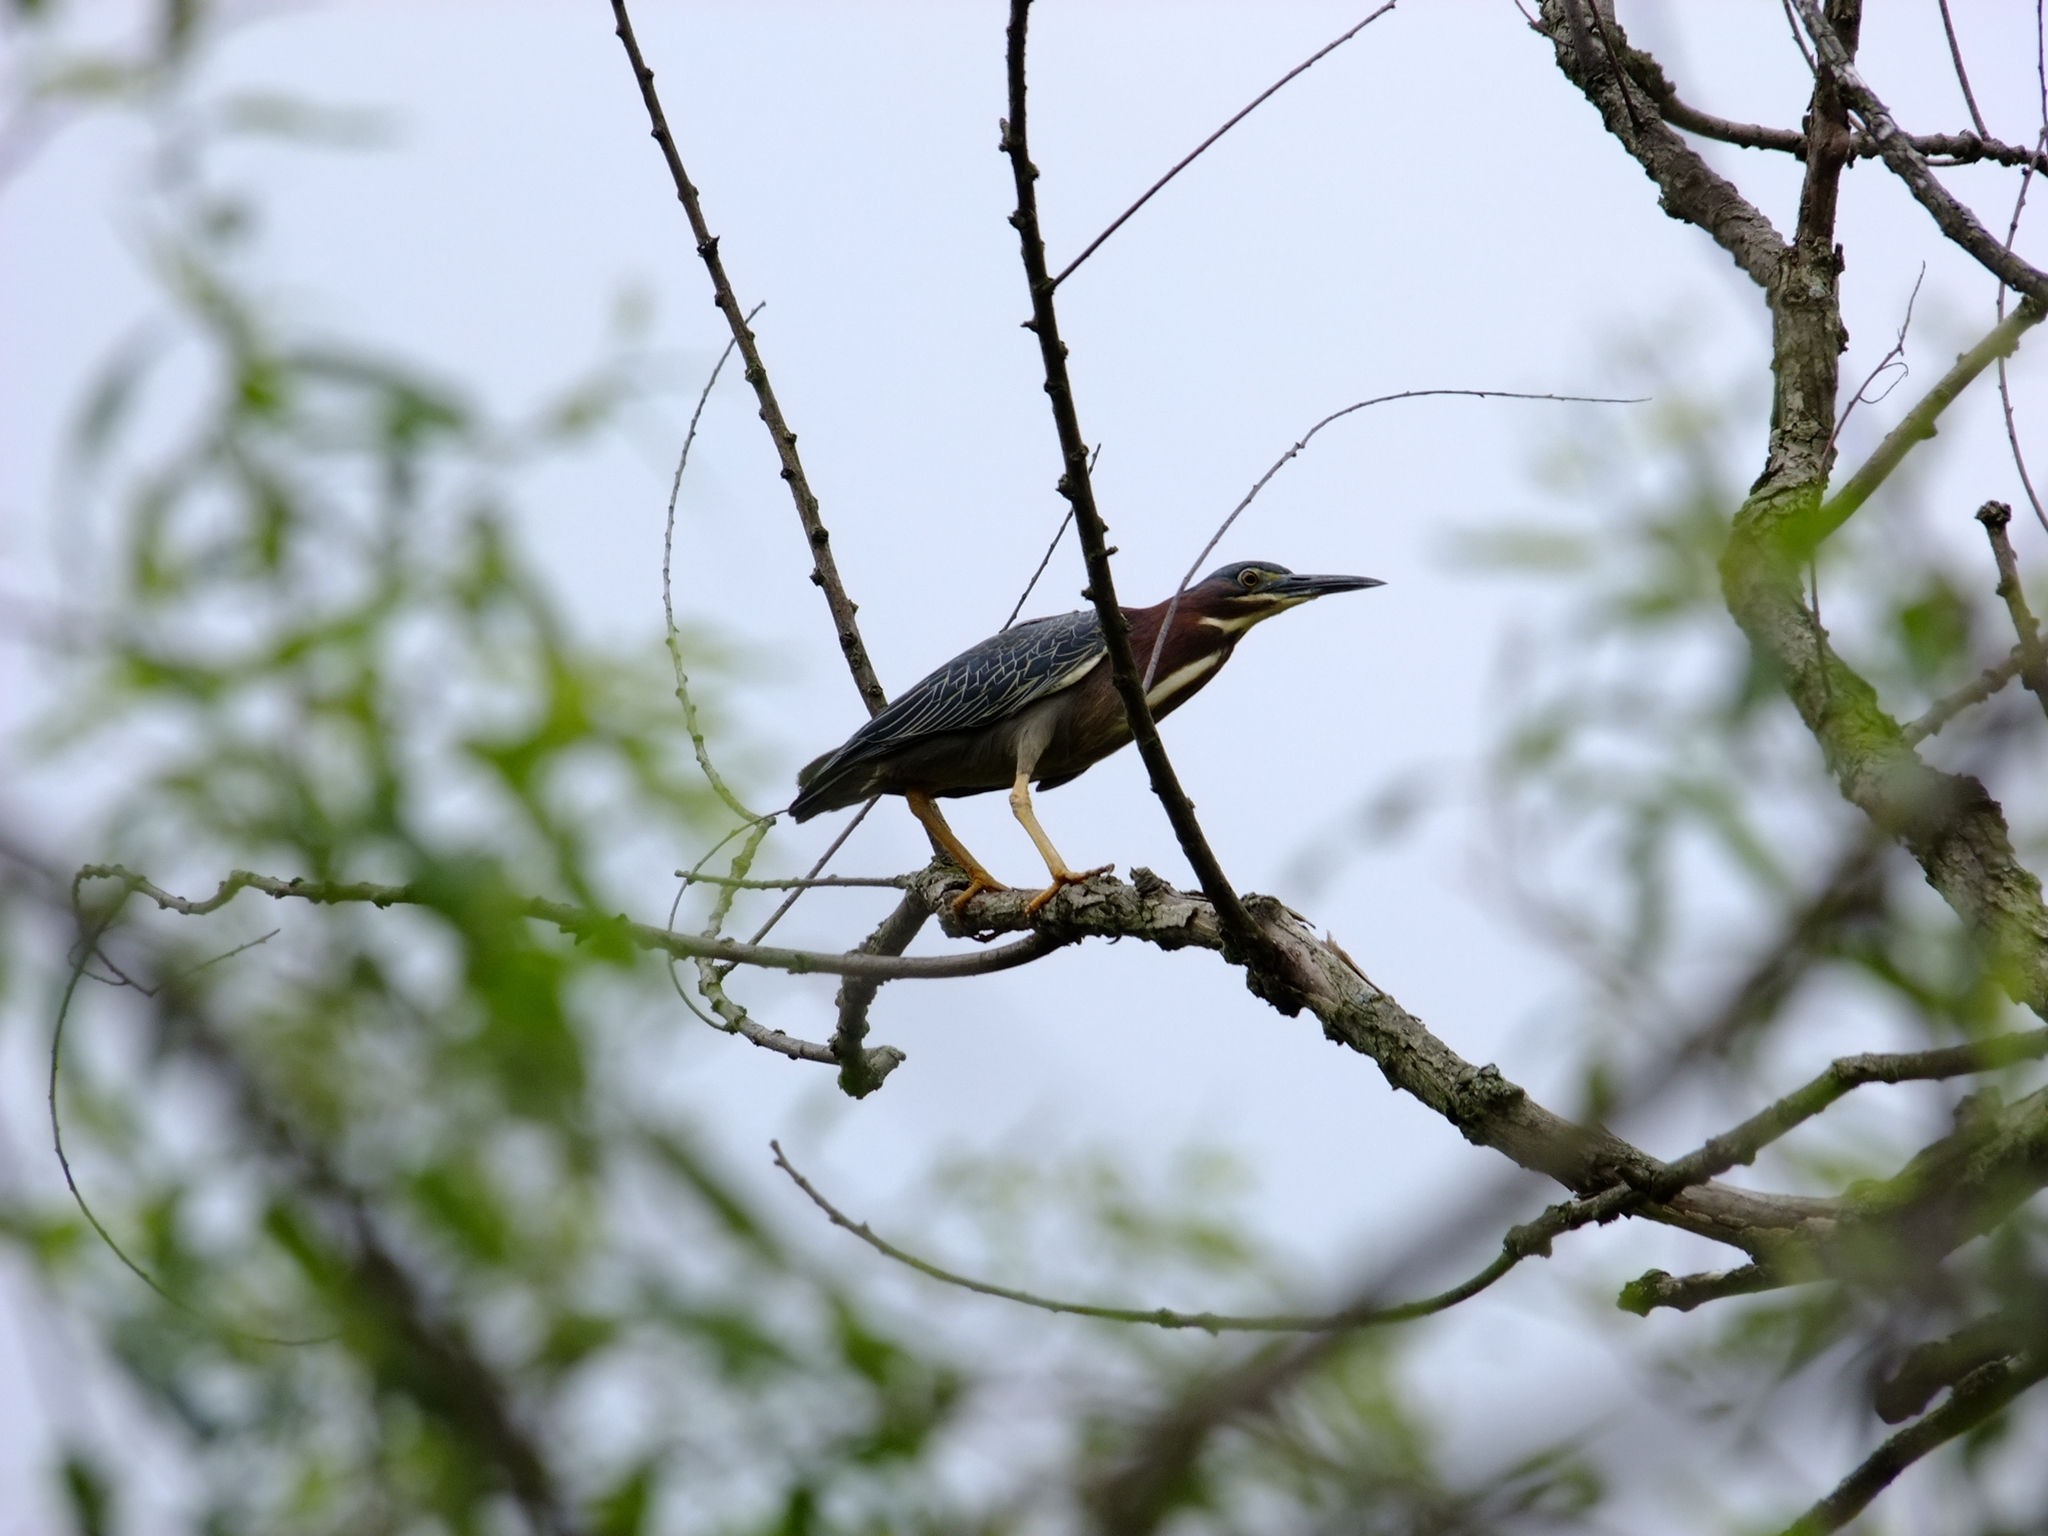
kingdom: Animalia
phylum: Chordata
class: Aves
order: Pelecaniformes
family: Ardeidae
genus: Butorides
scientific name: Butorides virescens
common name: Green heron
